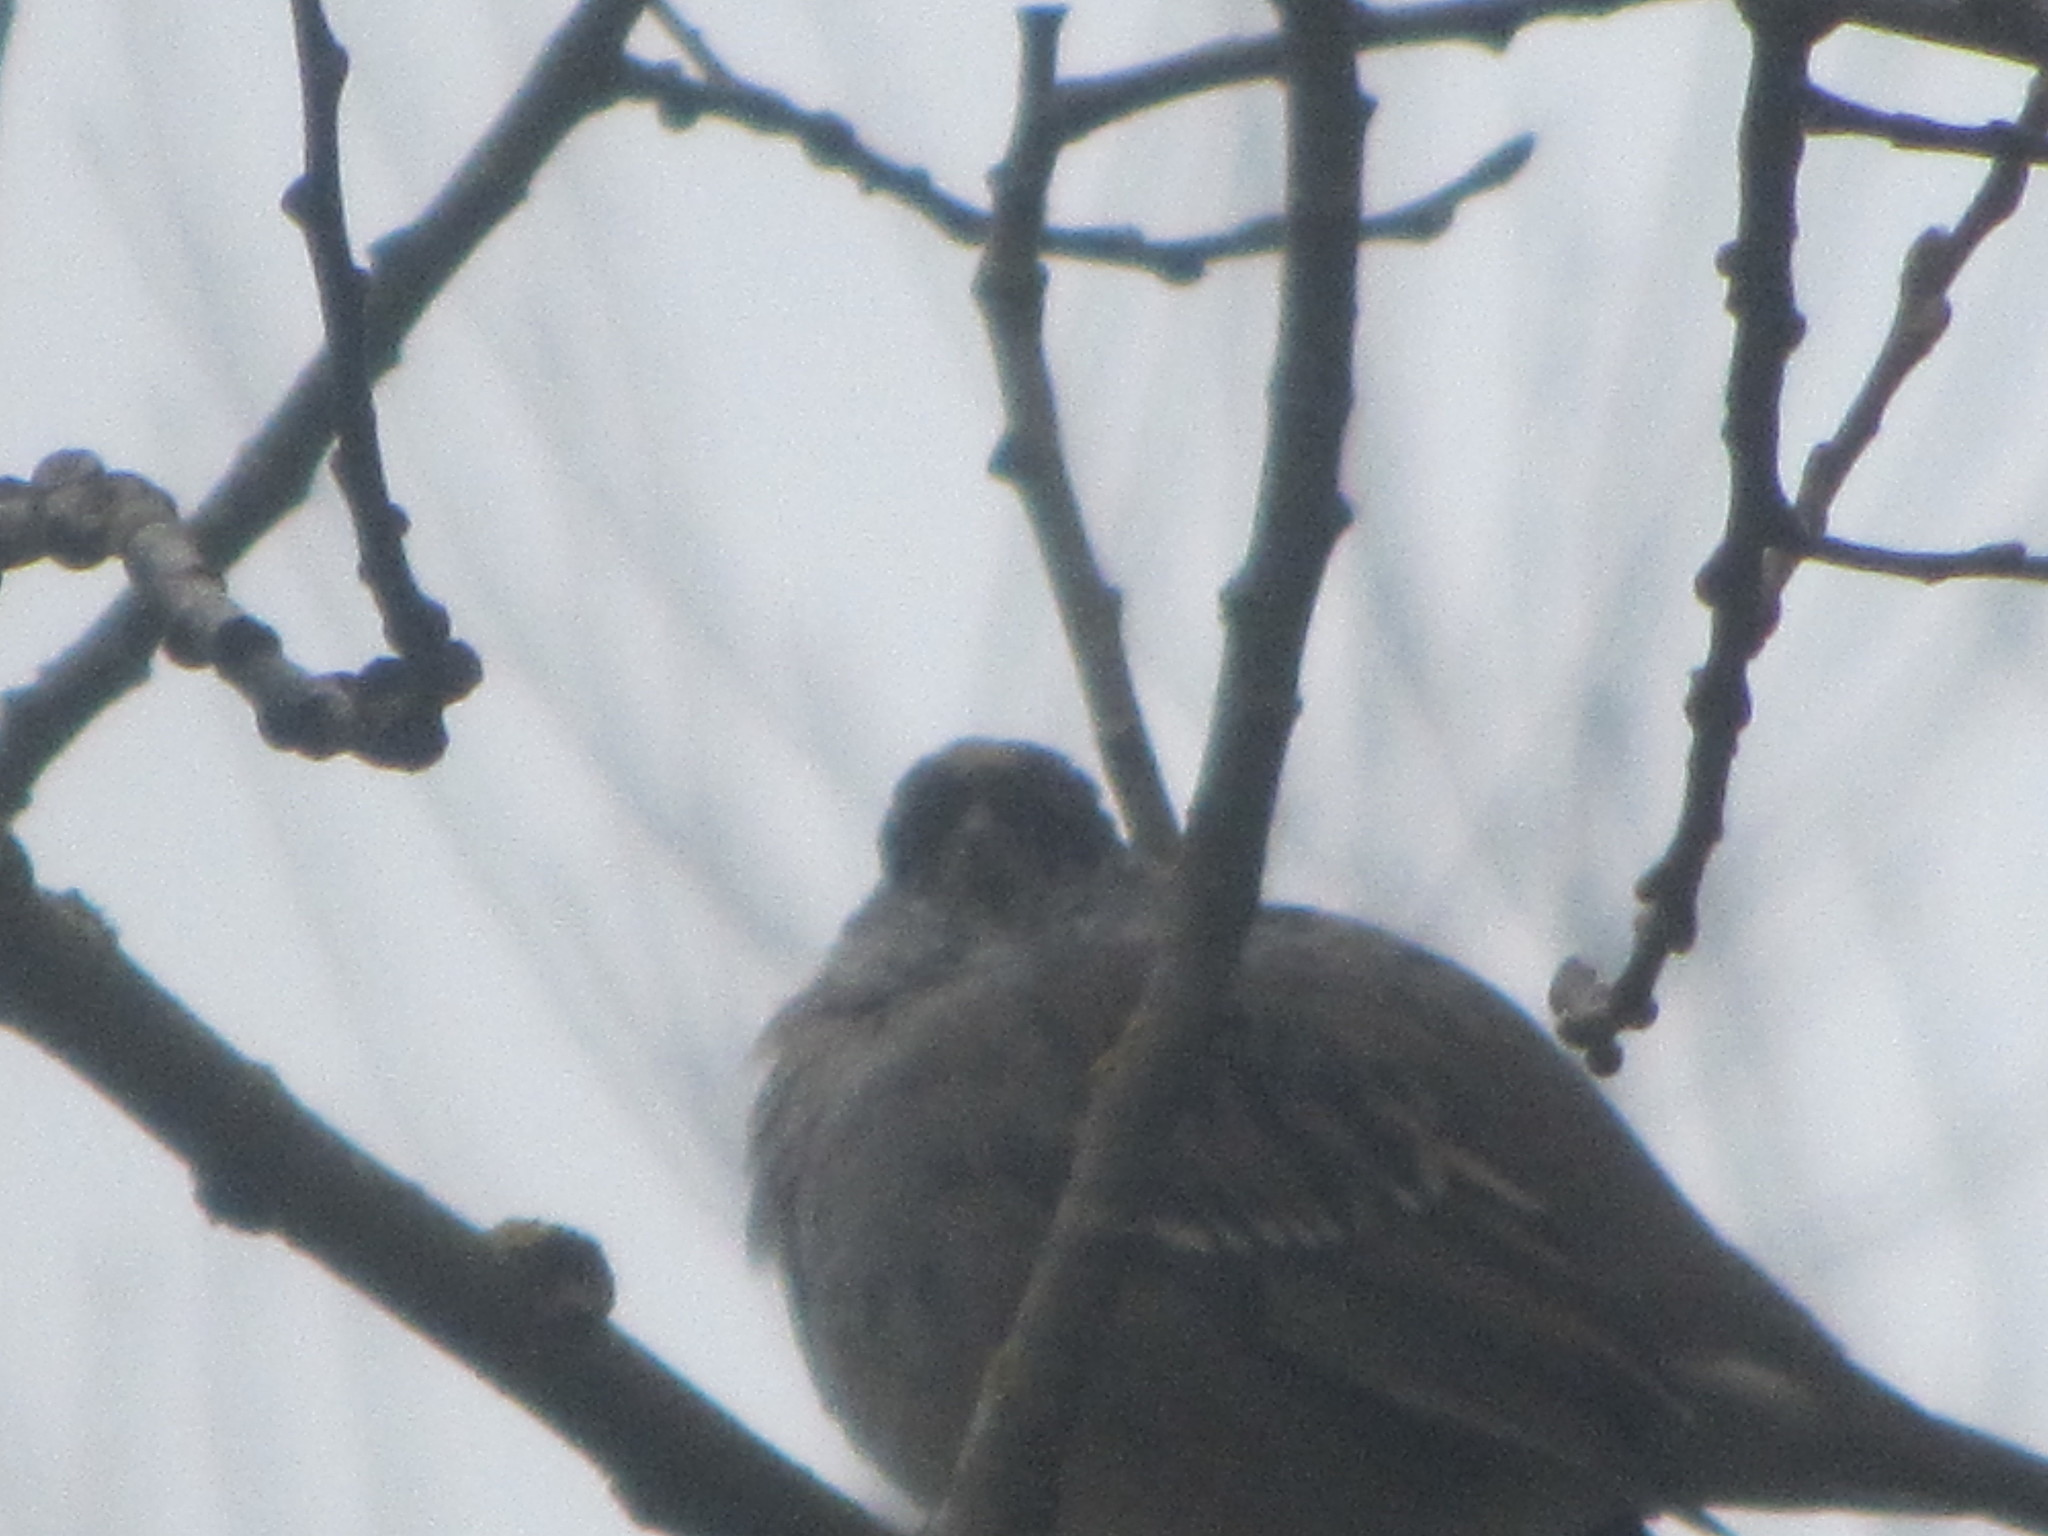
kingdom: Animalia
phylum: Chordata
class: Aves
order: Passeriformes
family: Passerellidae
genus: Zonotrichia
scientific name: Zonotrichia atricapilla
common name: Golden-crowned sparrow
